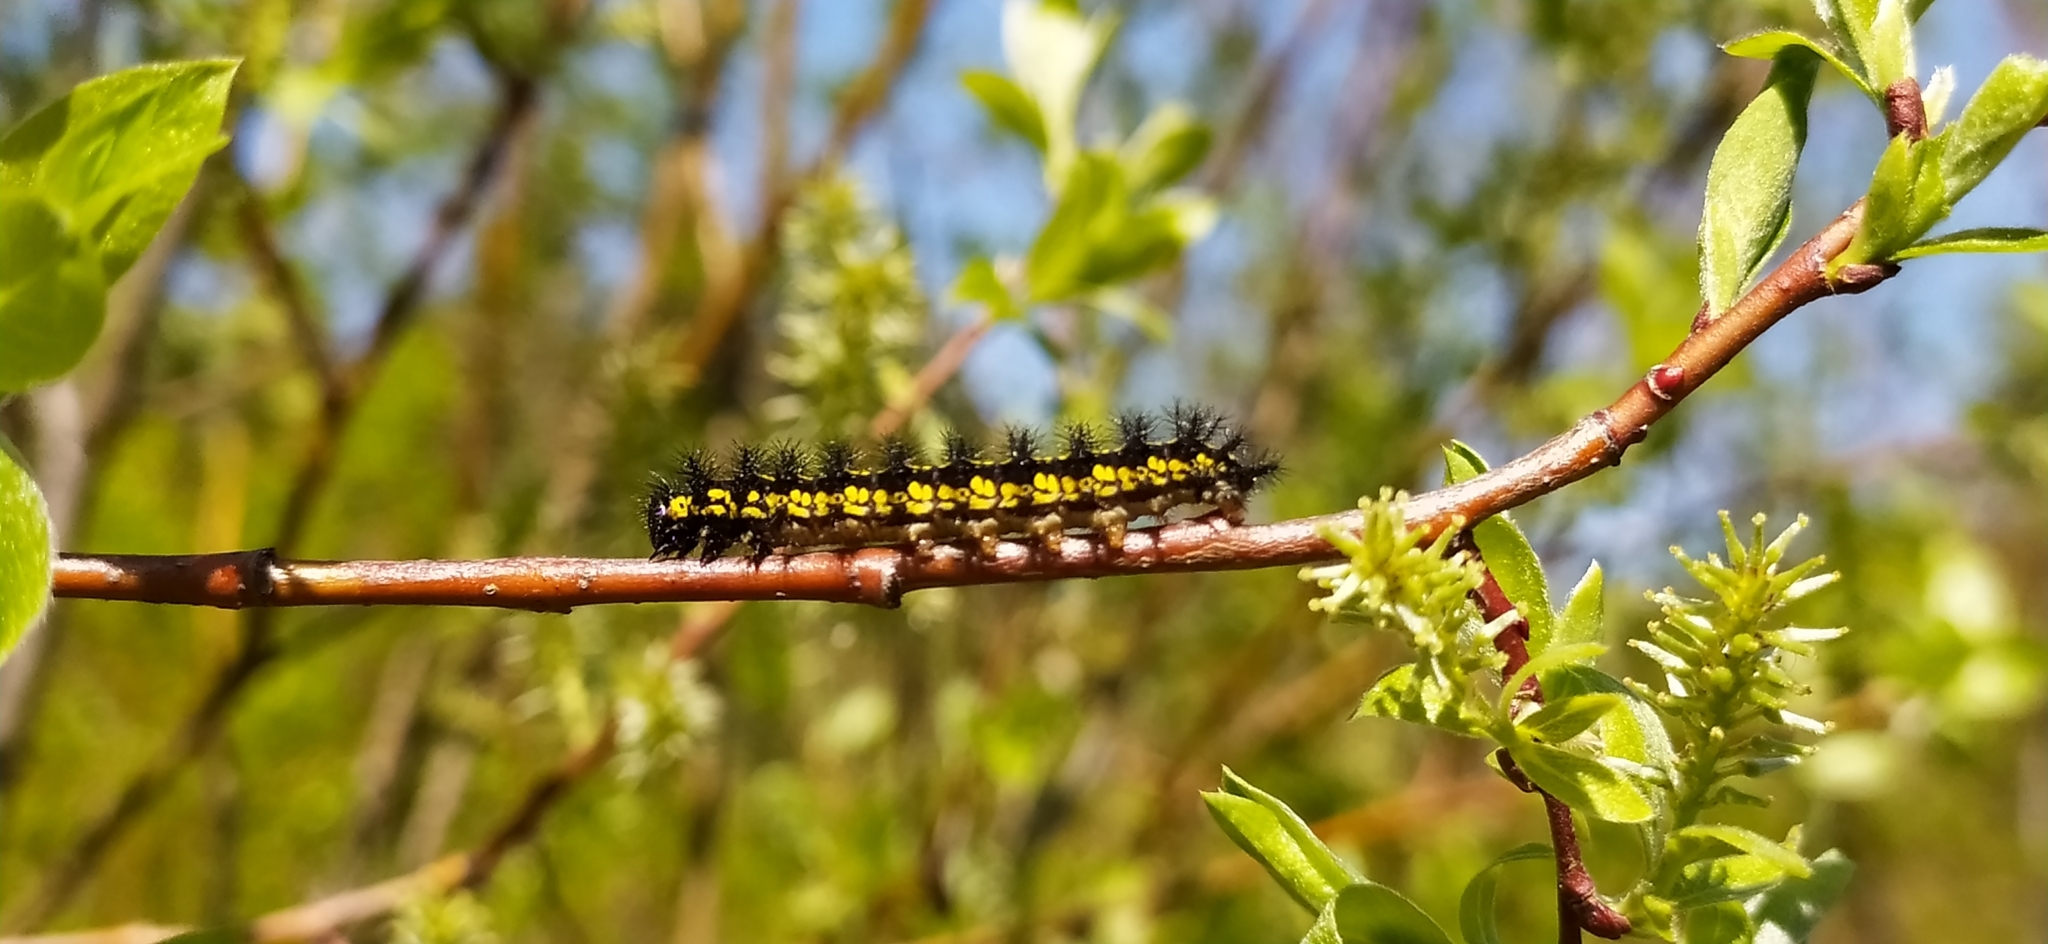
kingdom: Animalia
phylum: Arthropoda
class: Insecta
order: Lepidoptera
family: Nymphalidae
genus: Euphydryas
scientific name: Euphydryas maturna
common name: Scarce fritillary
